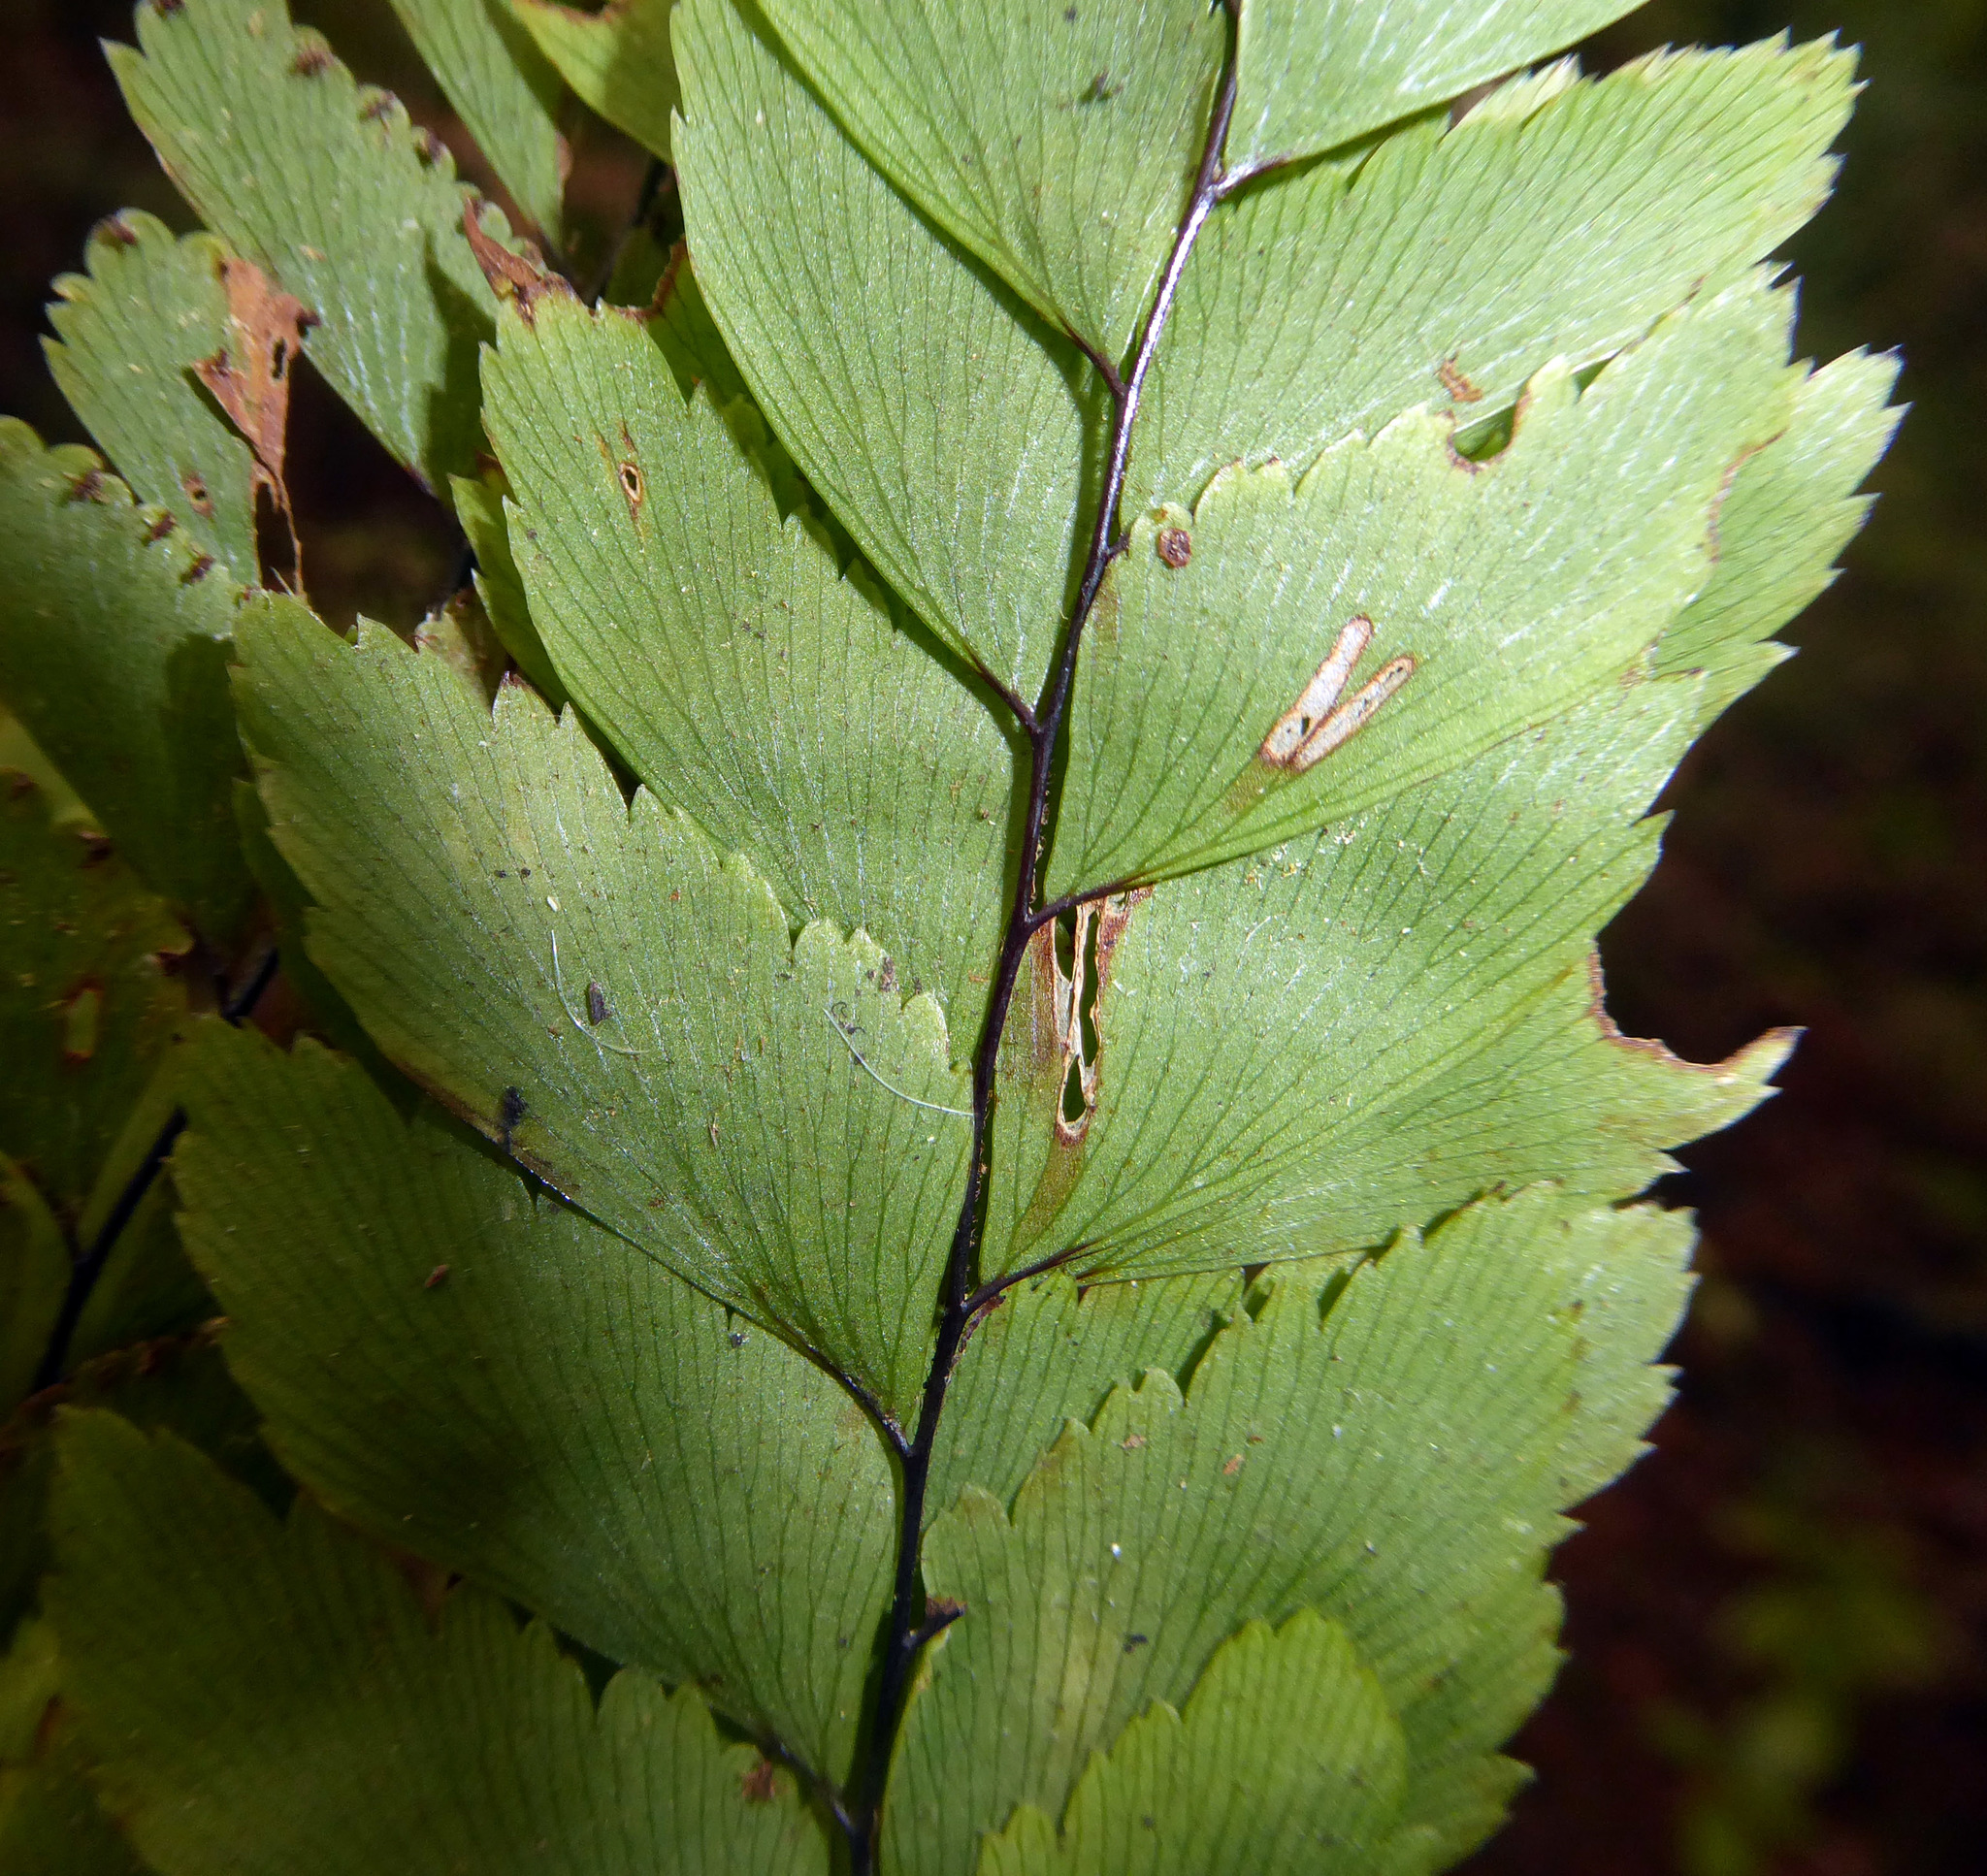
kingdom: Plantae
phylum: Tracheophyta
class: Polypodiopsida
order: Polypodiales
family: Pteridaceae
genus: Adiantum
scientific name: Adiantum fulvum
